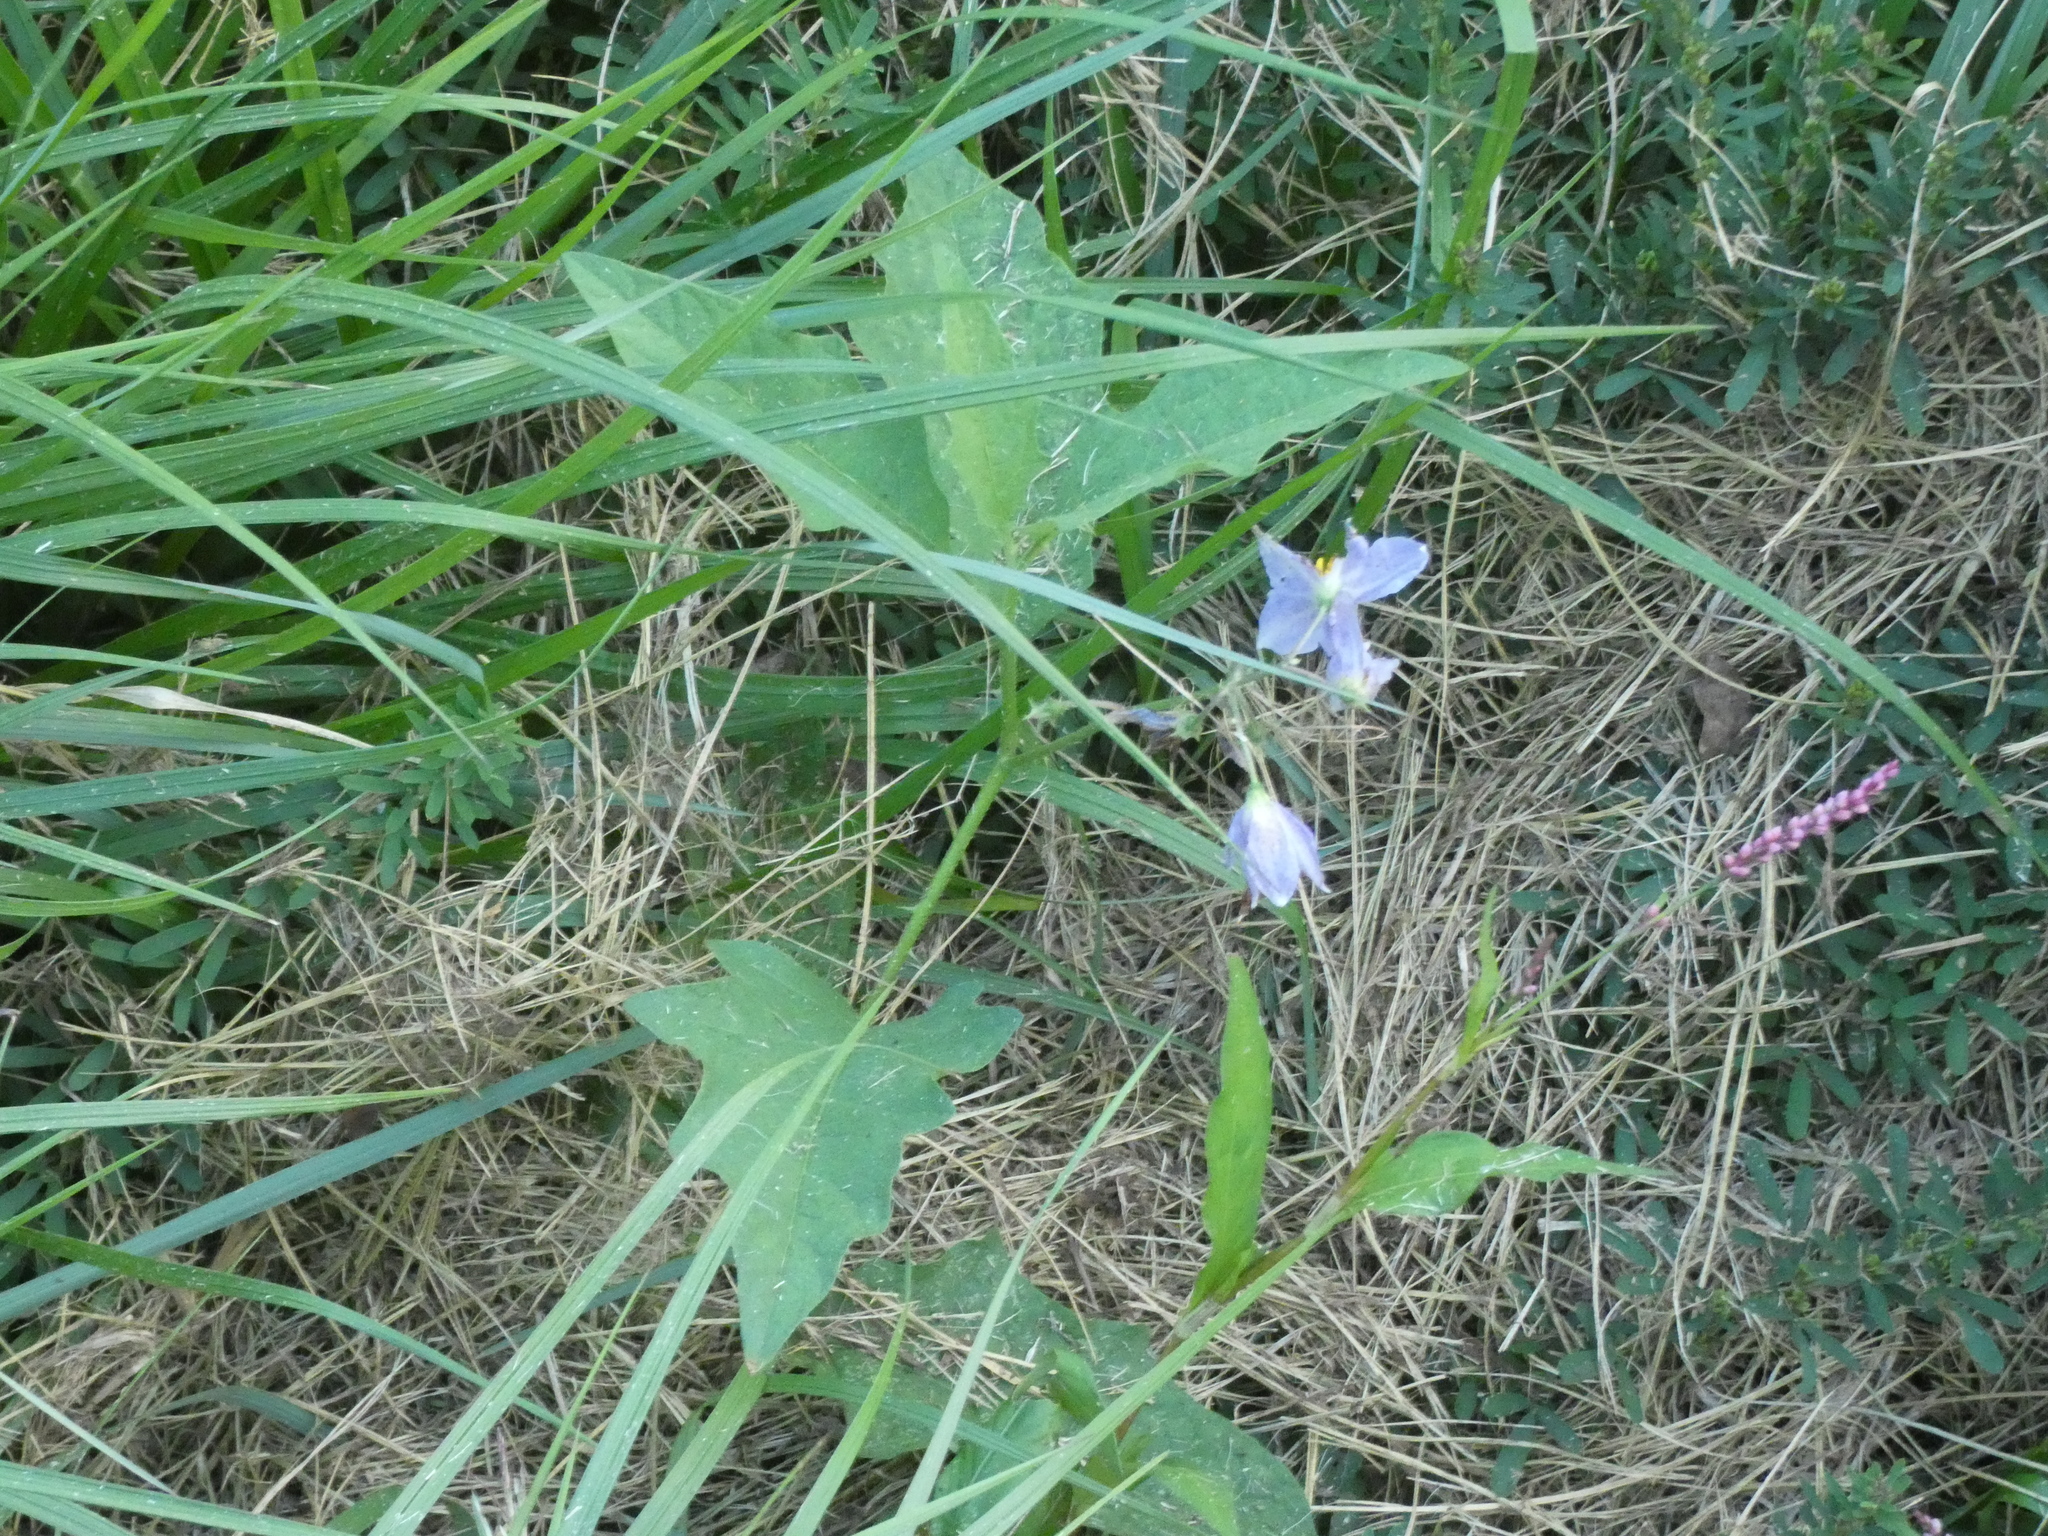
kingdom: Plantae
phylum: Tracheophyta
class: Magnoliopsida
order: Solanales
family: Solanaceae
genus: Solanum
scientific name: Solanum carolinense
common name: Horse-nettle
